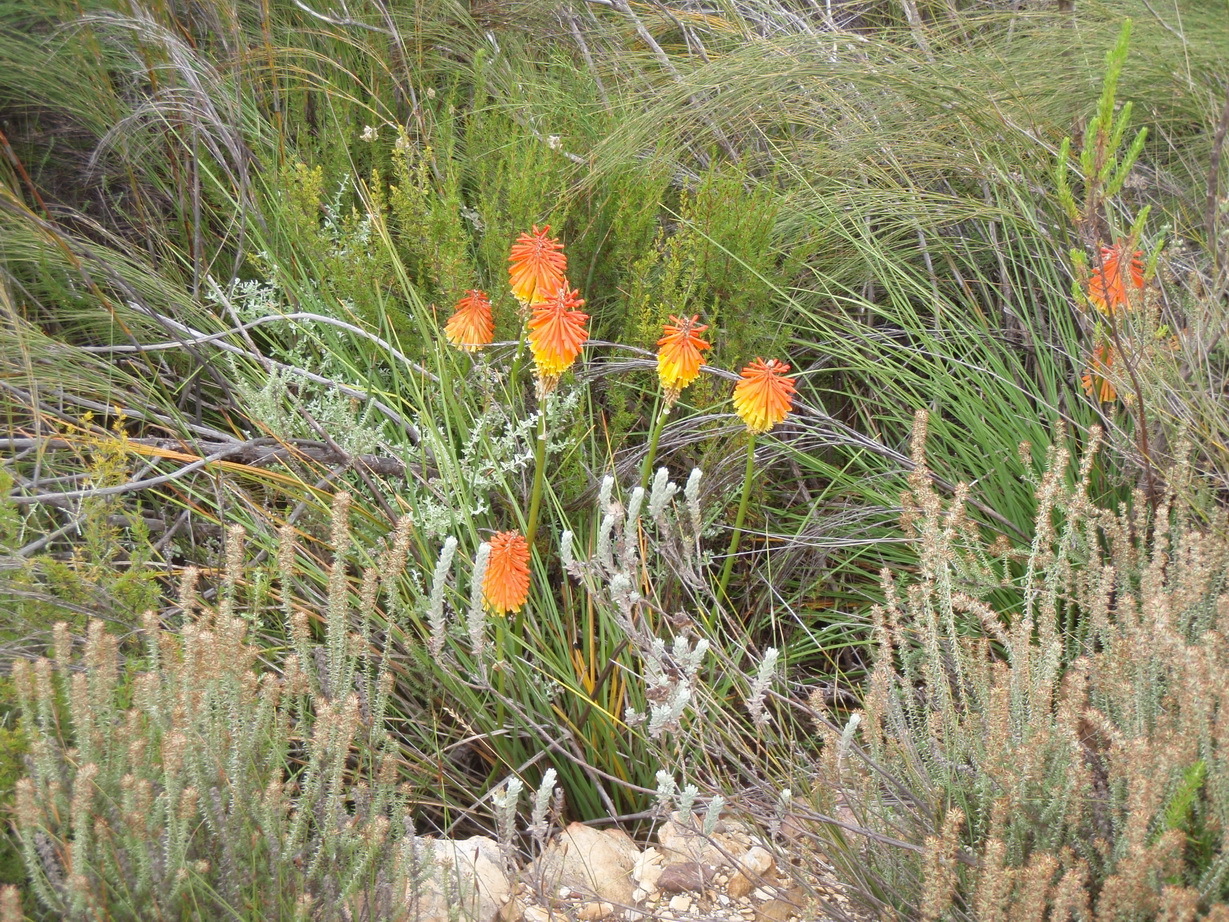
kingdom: Plantae
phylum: Tracheophyta
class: Liliopsida
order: Asparagales
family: Asphodelaceae
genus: Kniphofia
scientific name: Kniphofia uvaria
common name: Red-hot-poker
